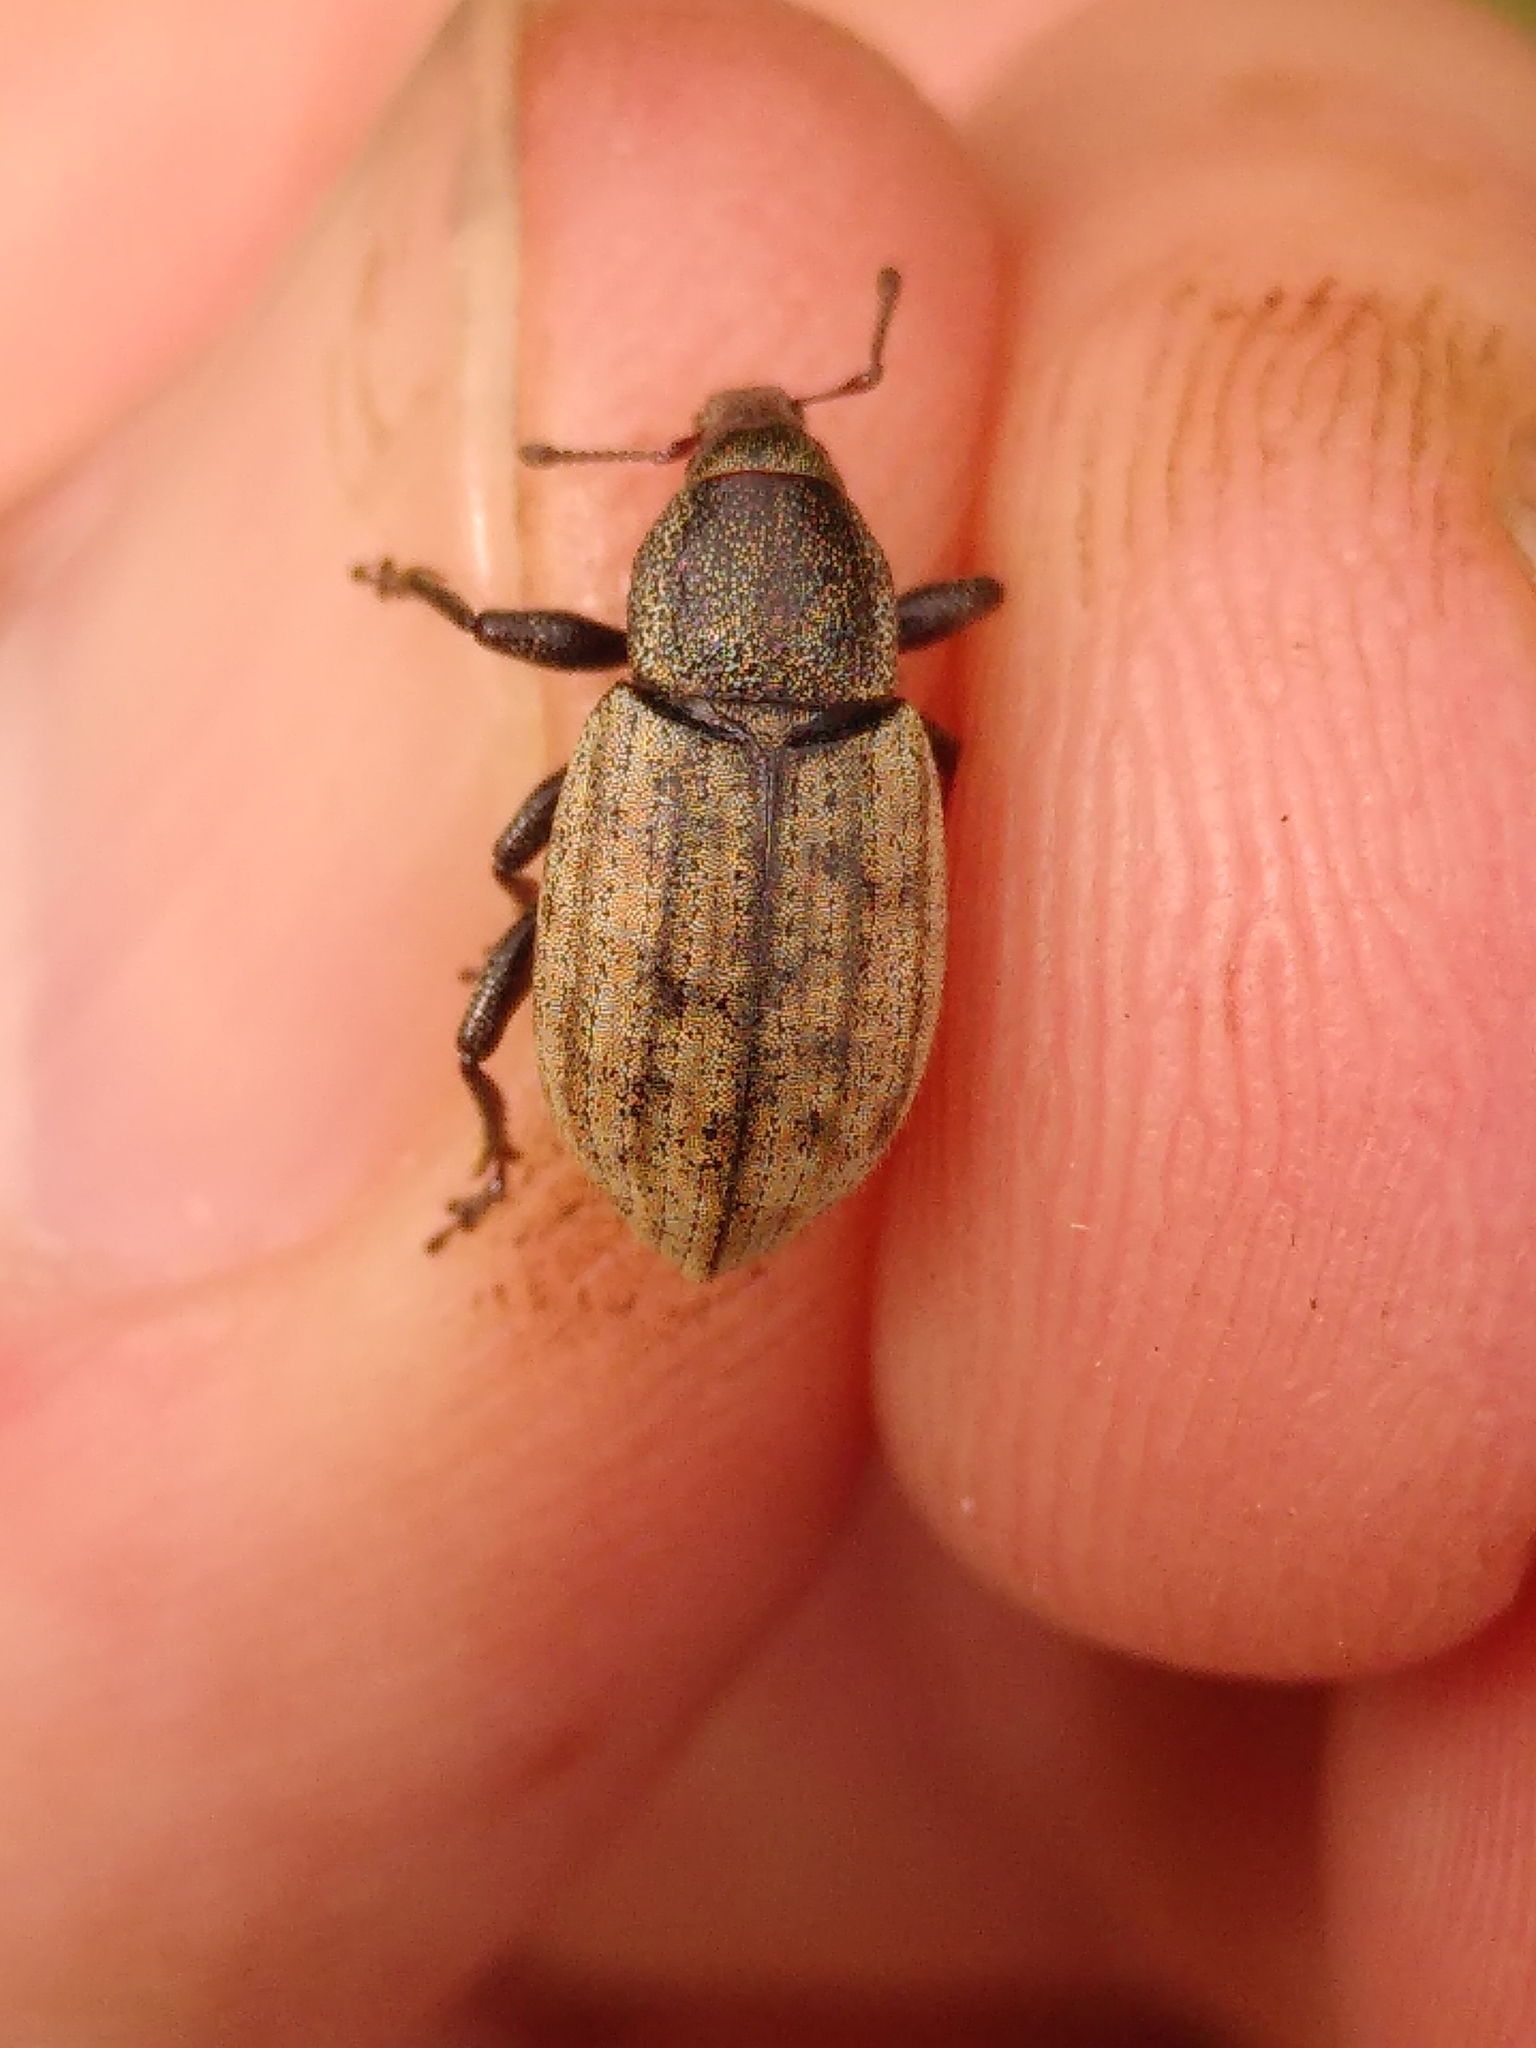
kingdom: Animalia
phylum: Arthropoda
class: Insecta
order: Coleoptera
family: Curculionidae
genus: Barynotus
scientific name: Barynotus obscurus
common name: Weevil
